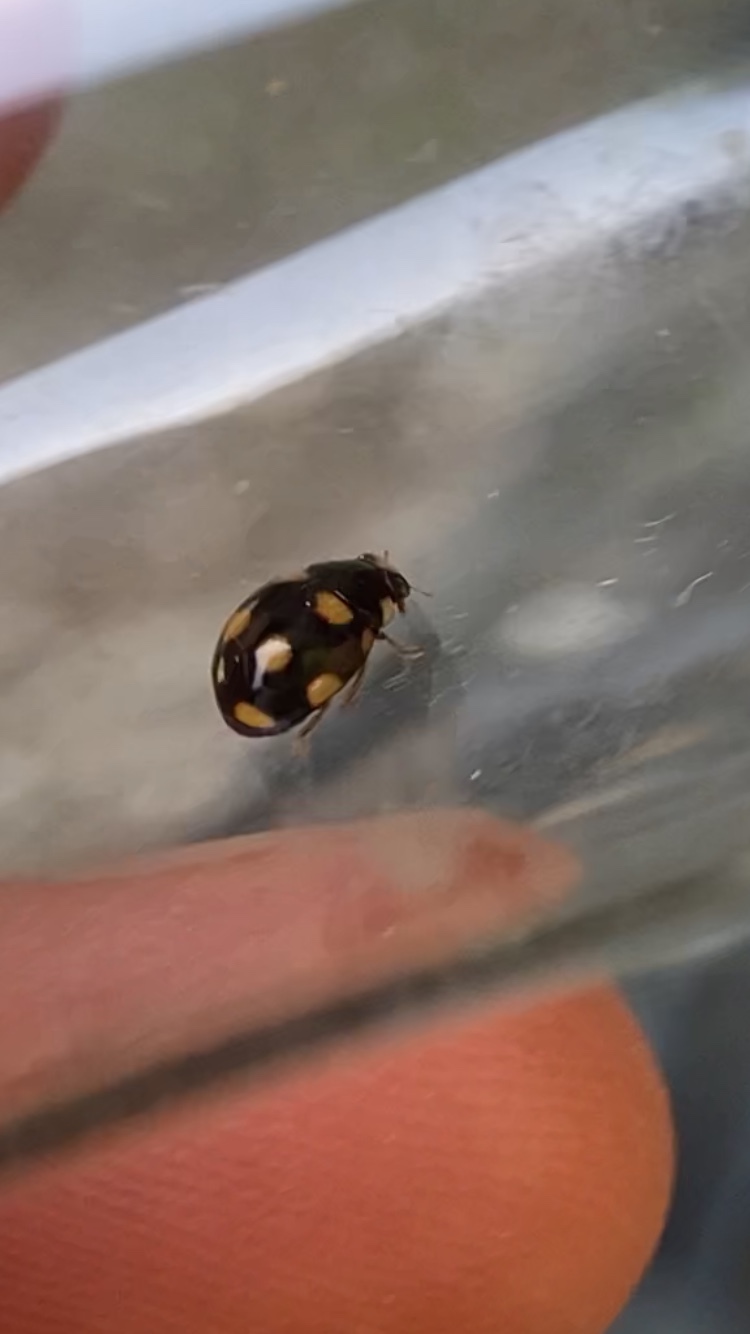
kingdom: Animalia
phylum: Arthropoda
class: Insecta
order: Coleoptera
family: Coccinellidae
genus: Brachiacantha
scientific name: Brachiacantha ursina
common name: Ursine spurleg lady beetle
